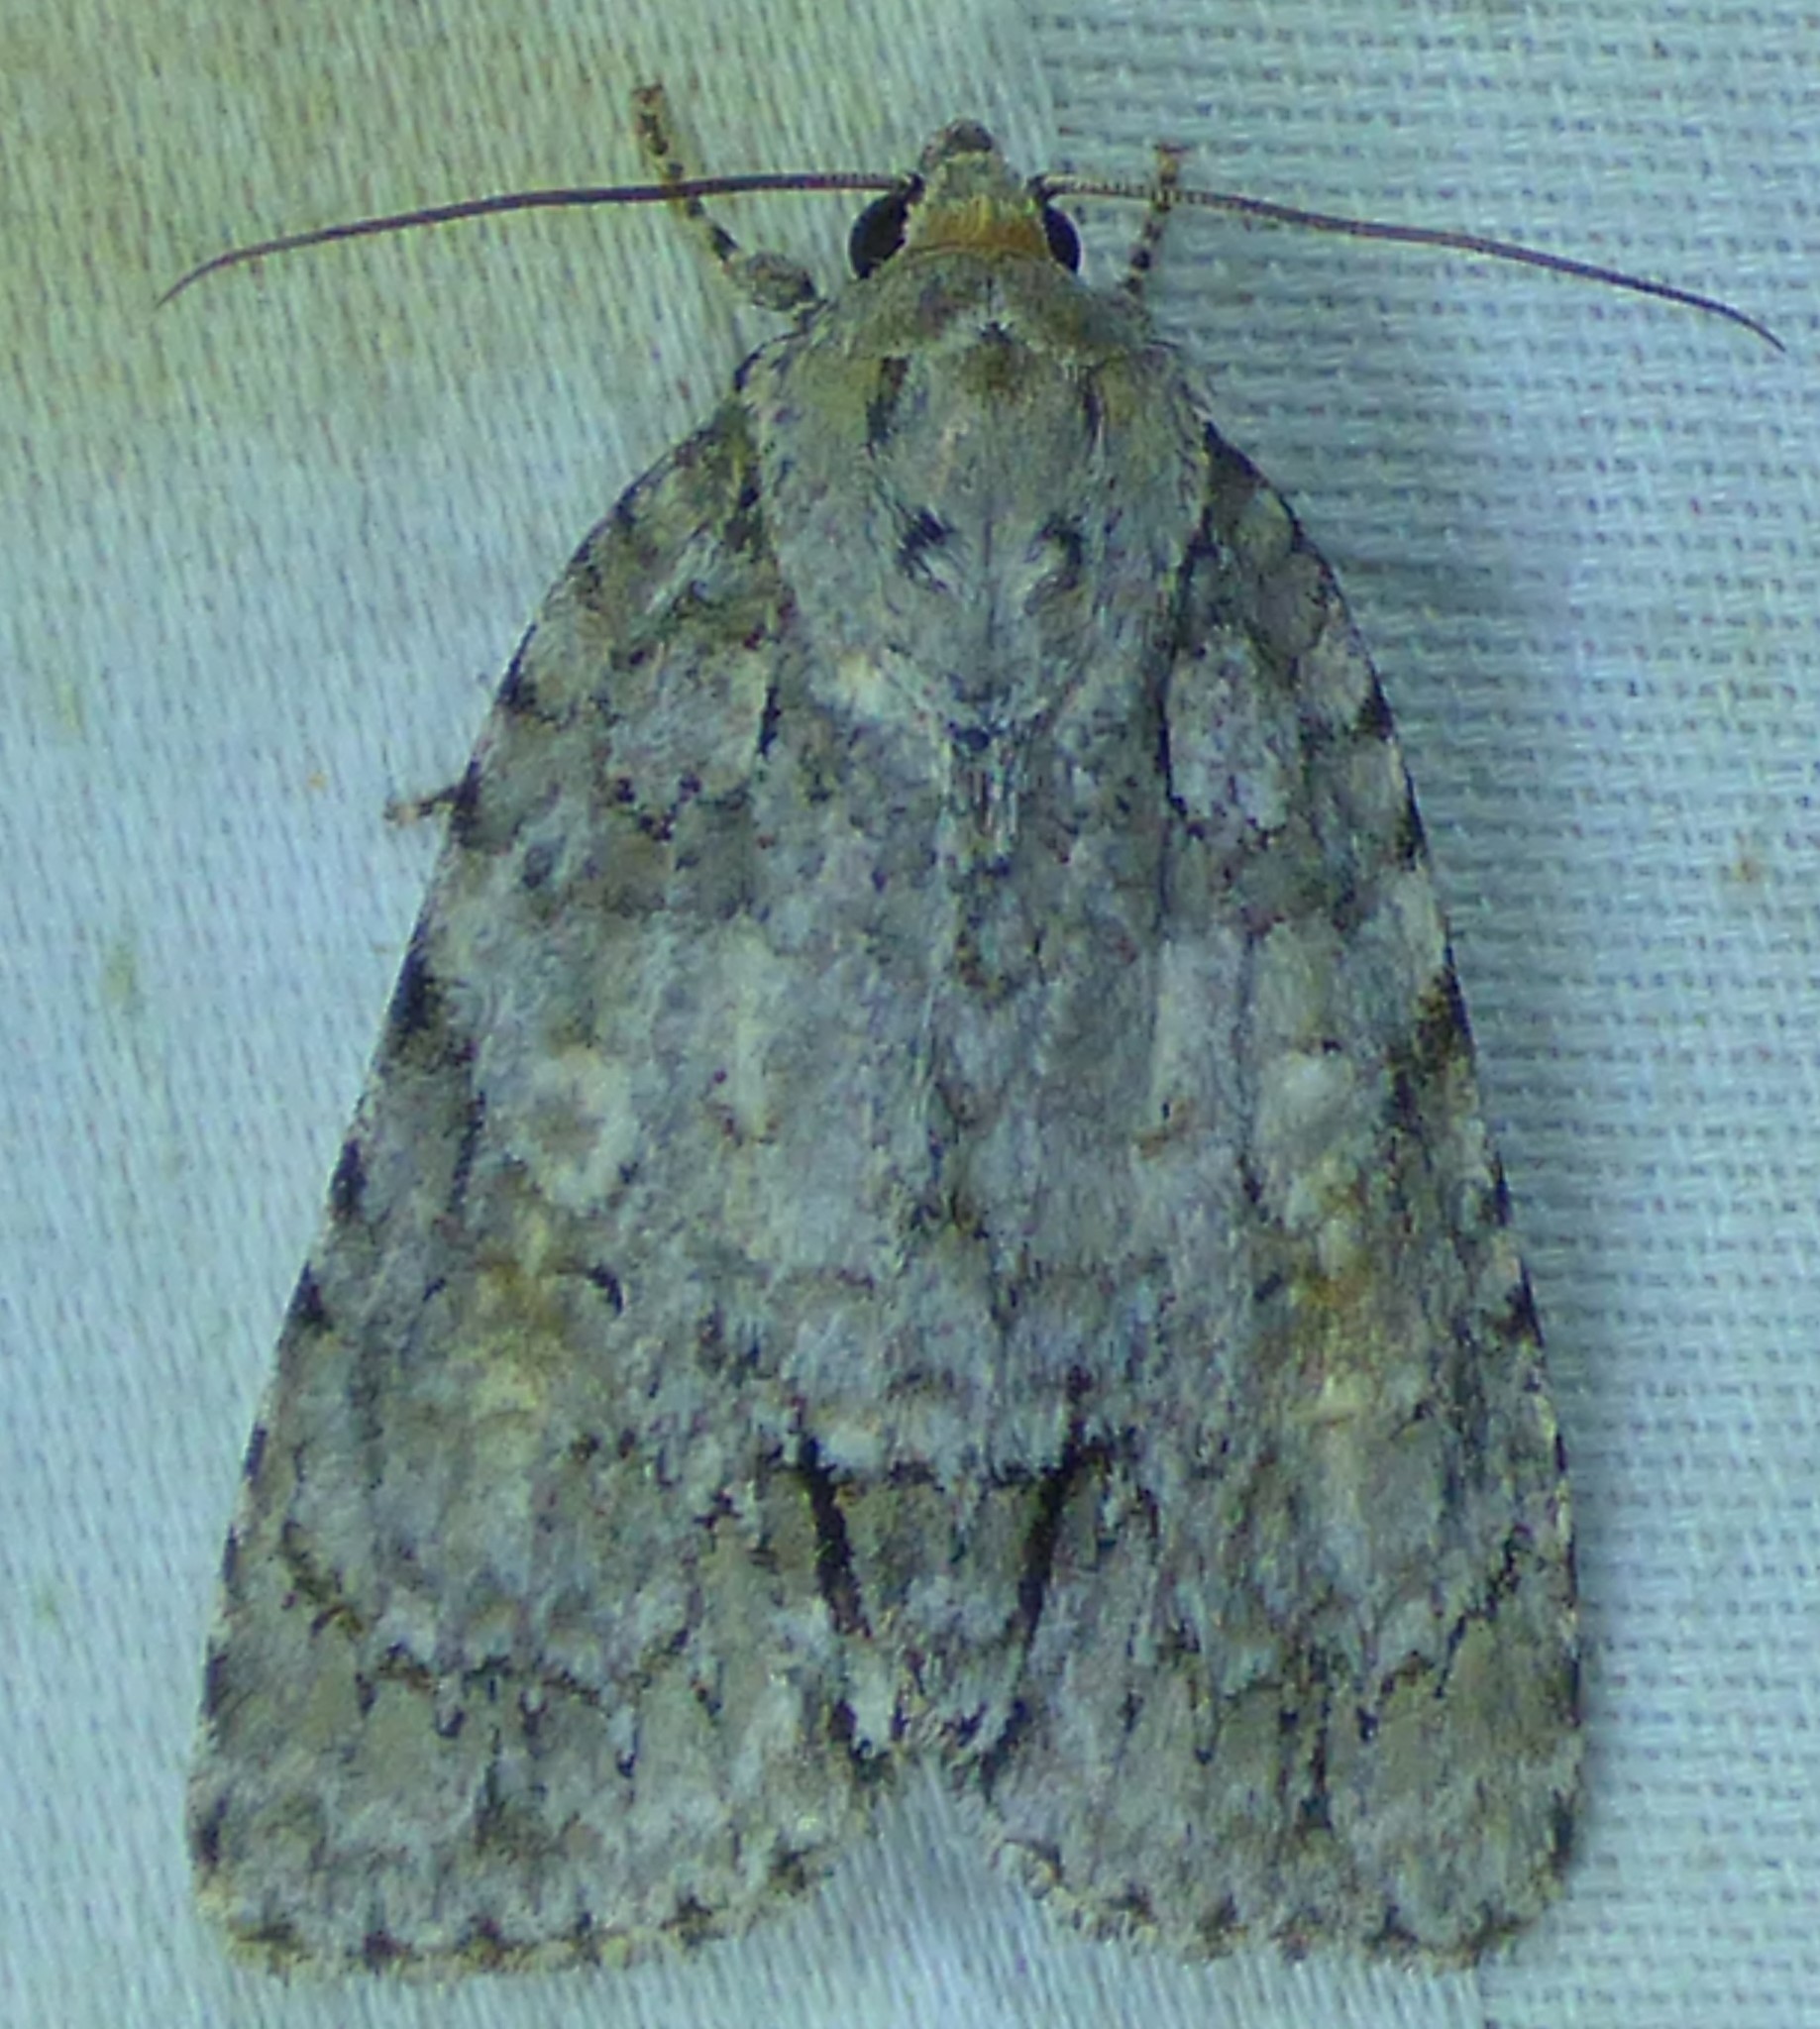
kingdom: Animalia
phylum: Arthropoda
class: Insecta
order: Lepidoptera
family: Noctuidae
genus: Acronicta
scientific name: Acronicta ovata
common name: Epauleted oak dagger
